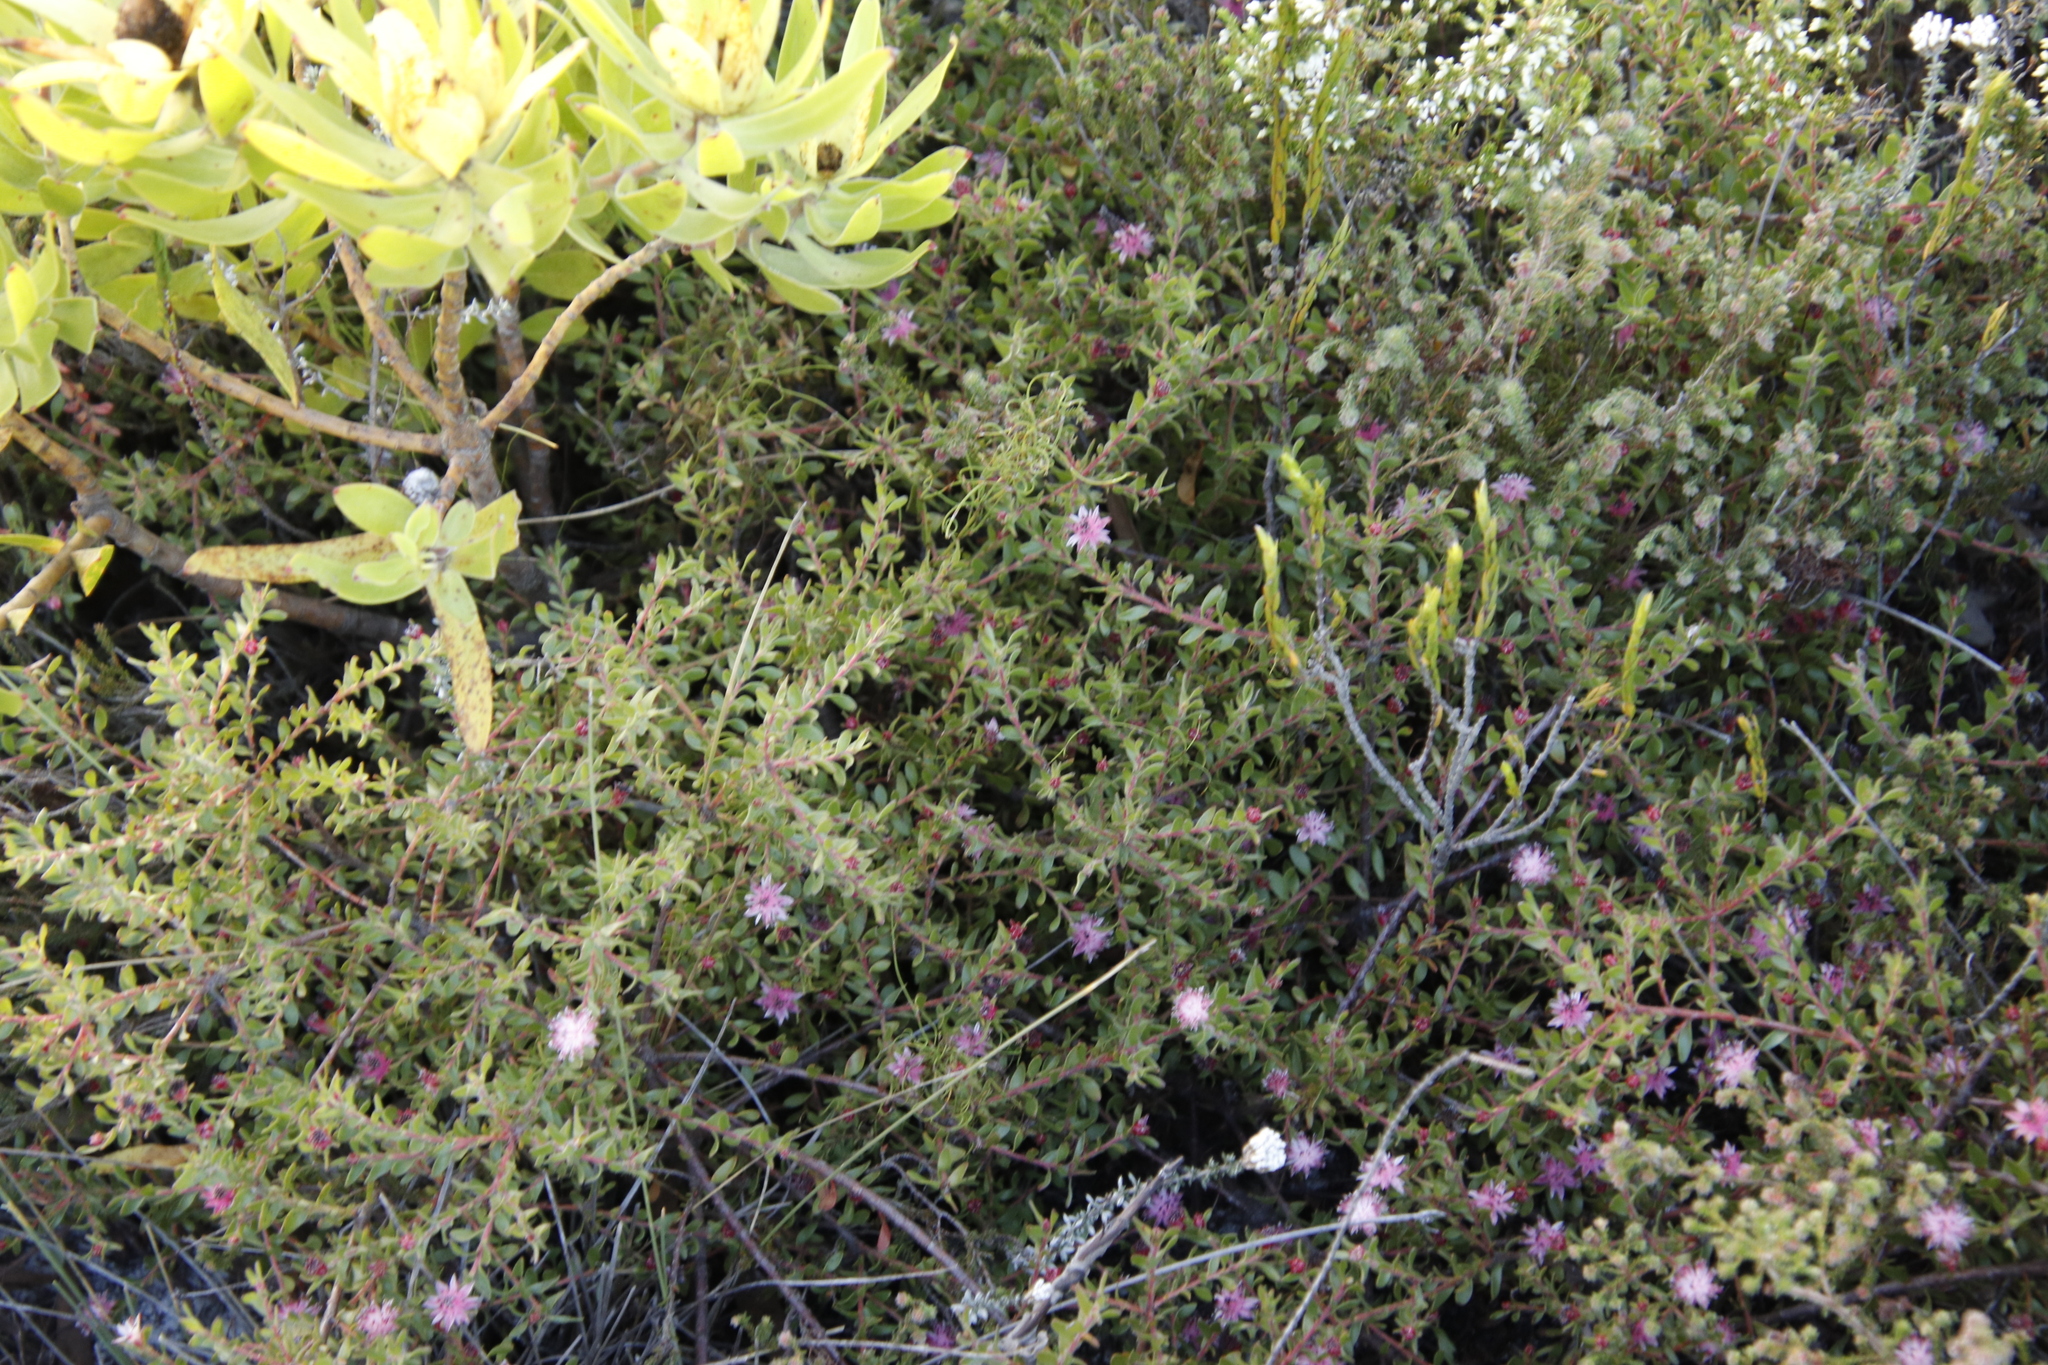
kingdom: Plantae
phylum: Tracheophyta
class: Magnoliopsida
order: Proteales
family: Proteaceae
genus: Diastella
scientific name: Diastella divaricata
